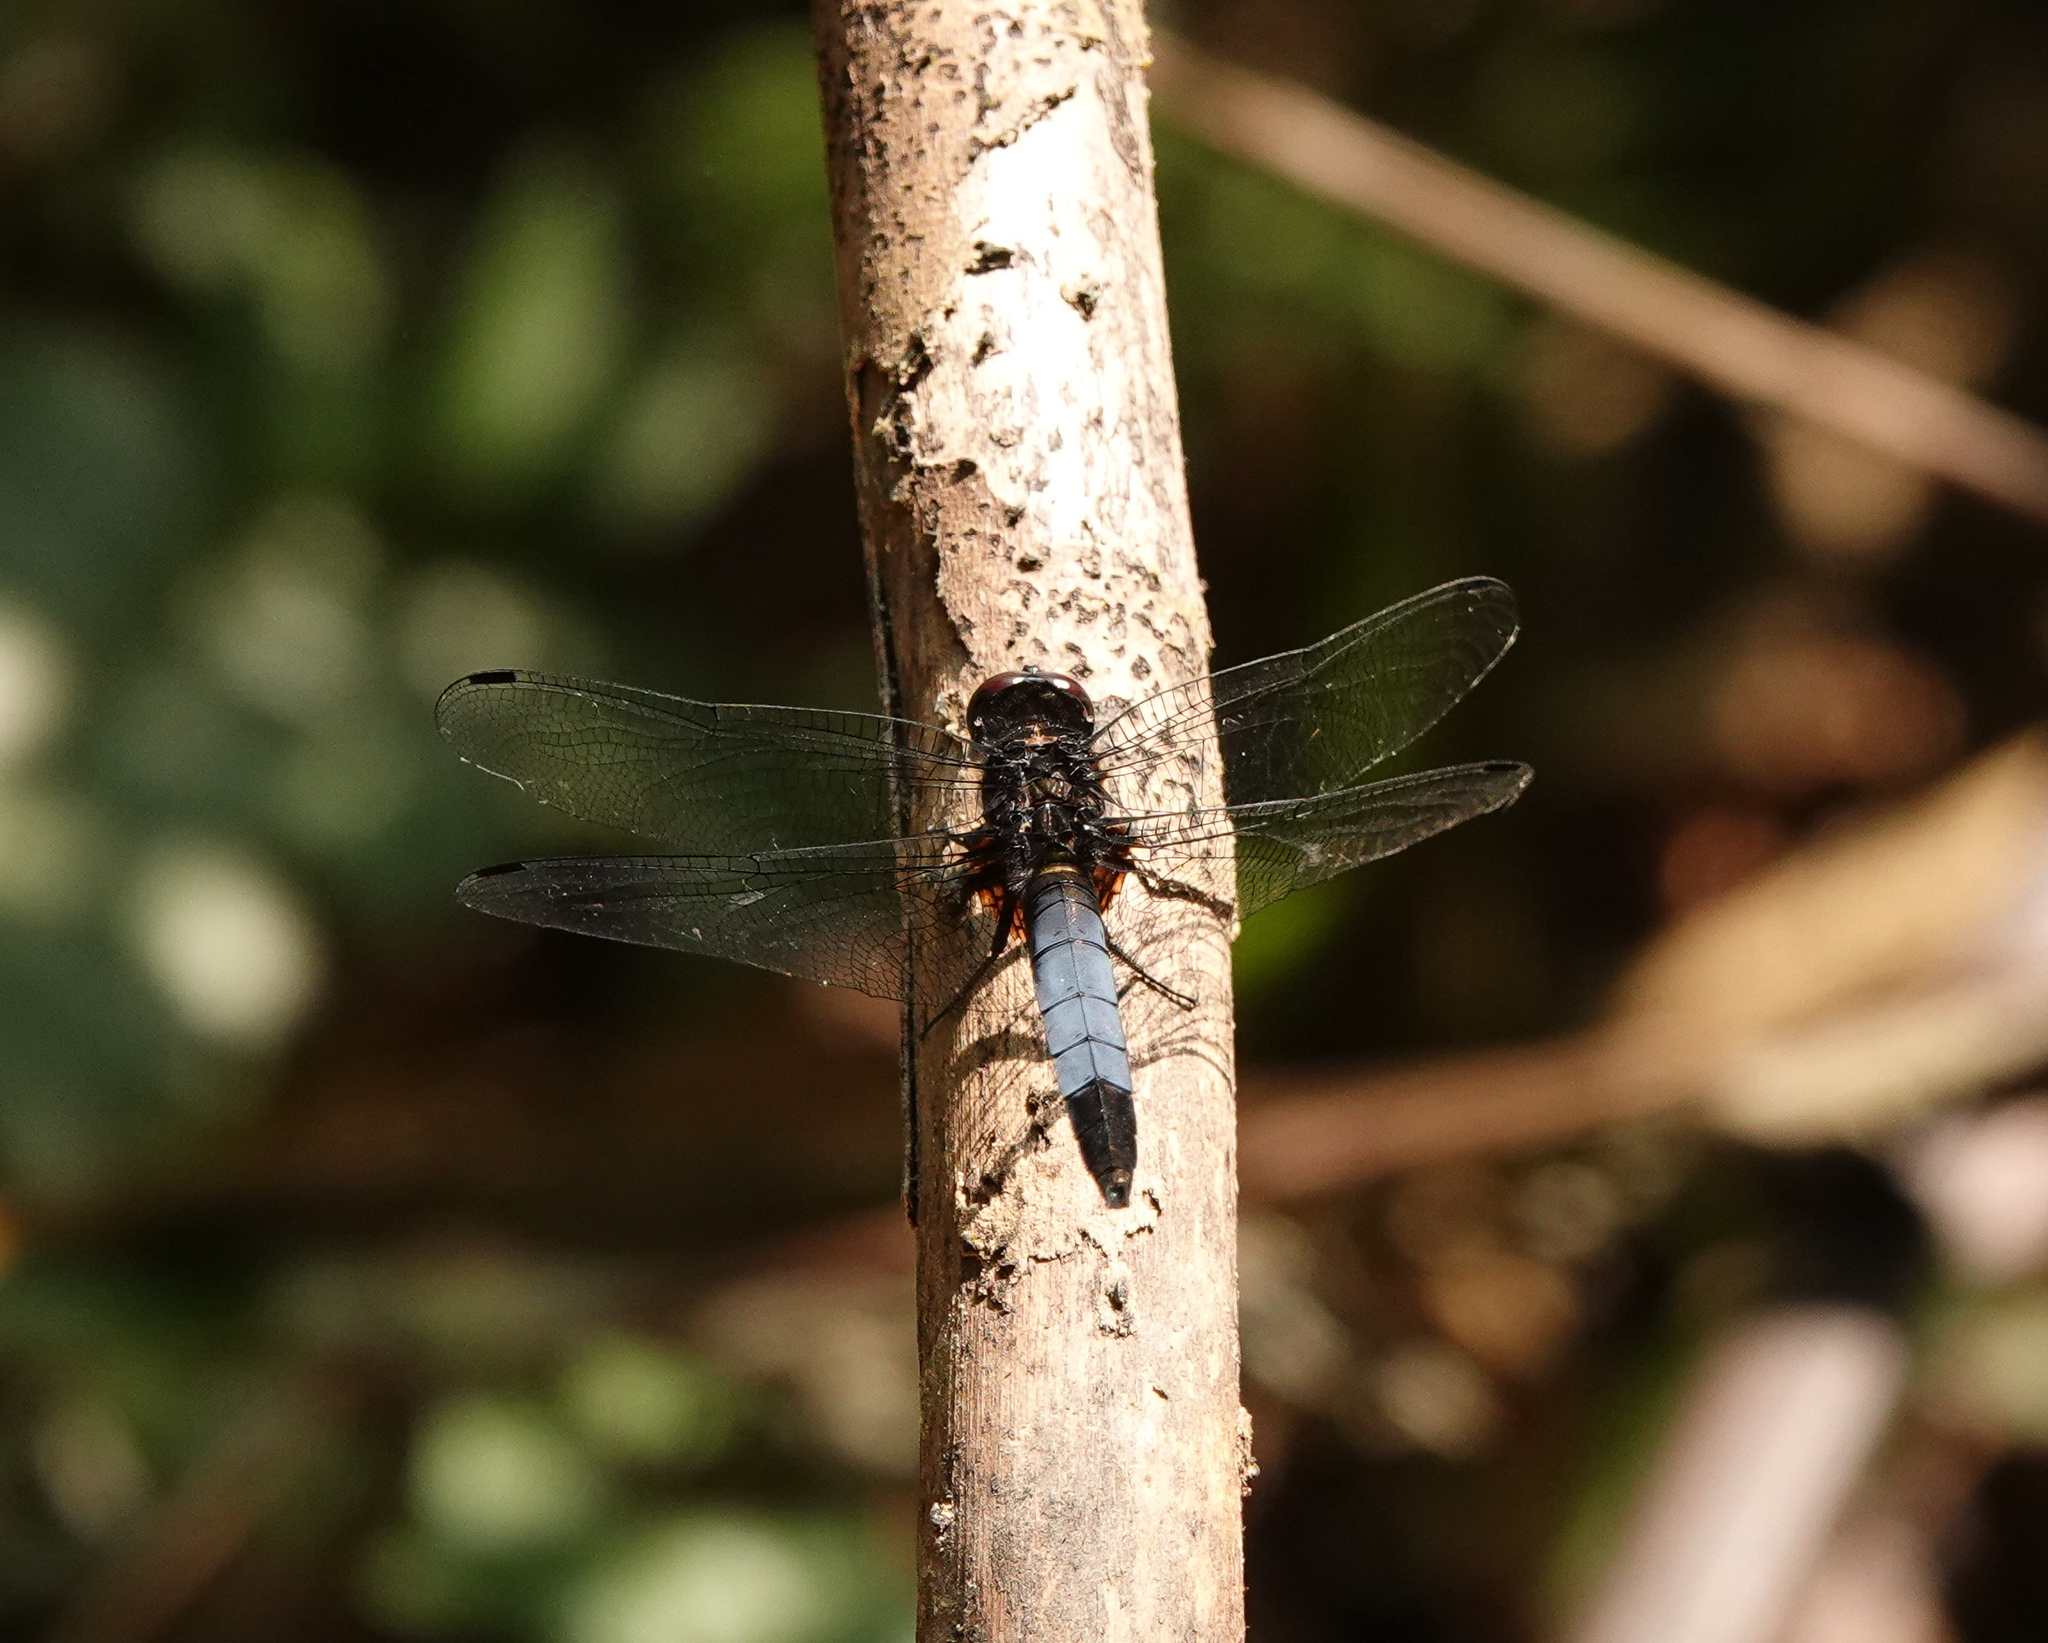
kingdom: Animalia
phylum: Arthropoda
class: Insecta
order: Odonata
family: Libellulidae
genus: Orthetrum
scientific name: Orthetrum triangulare
